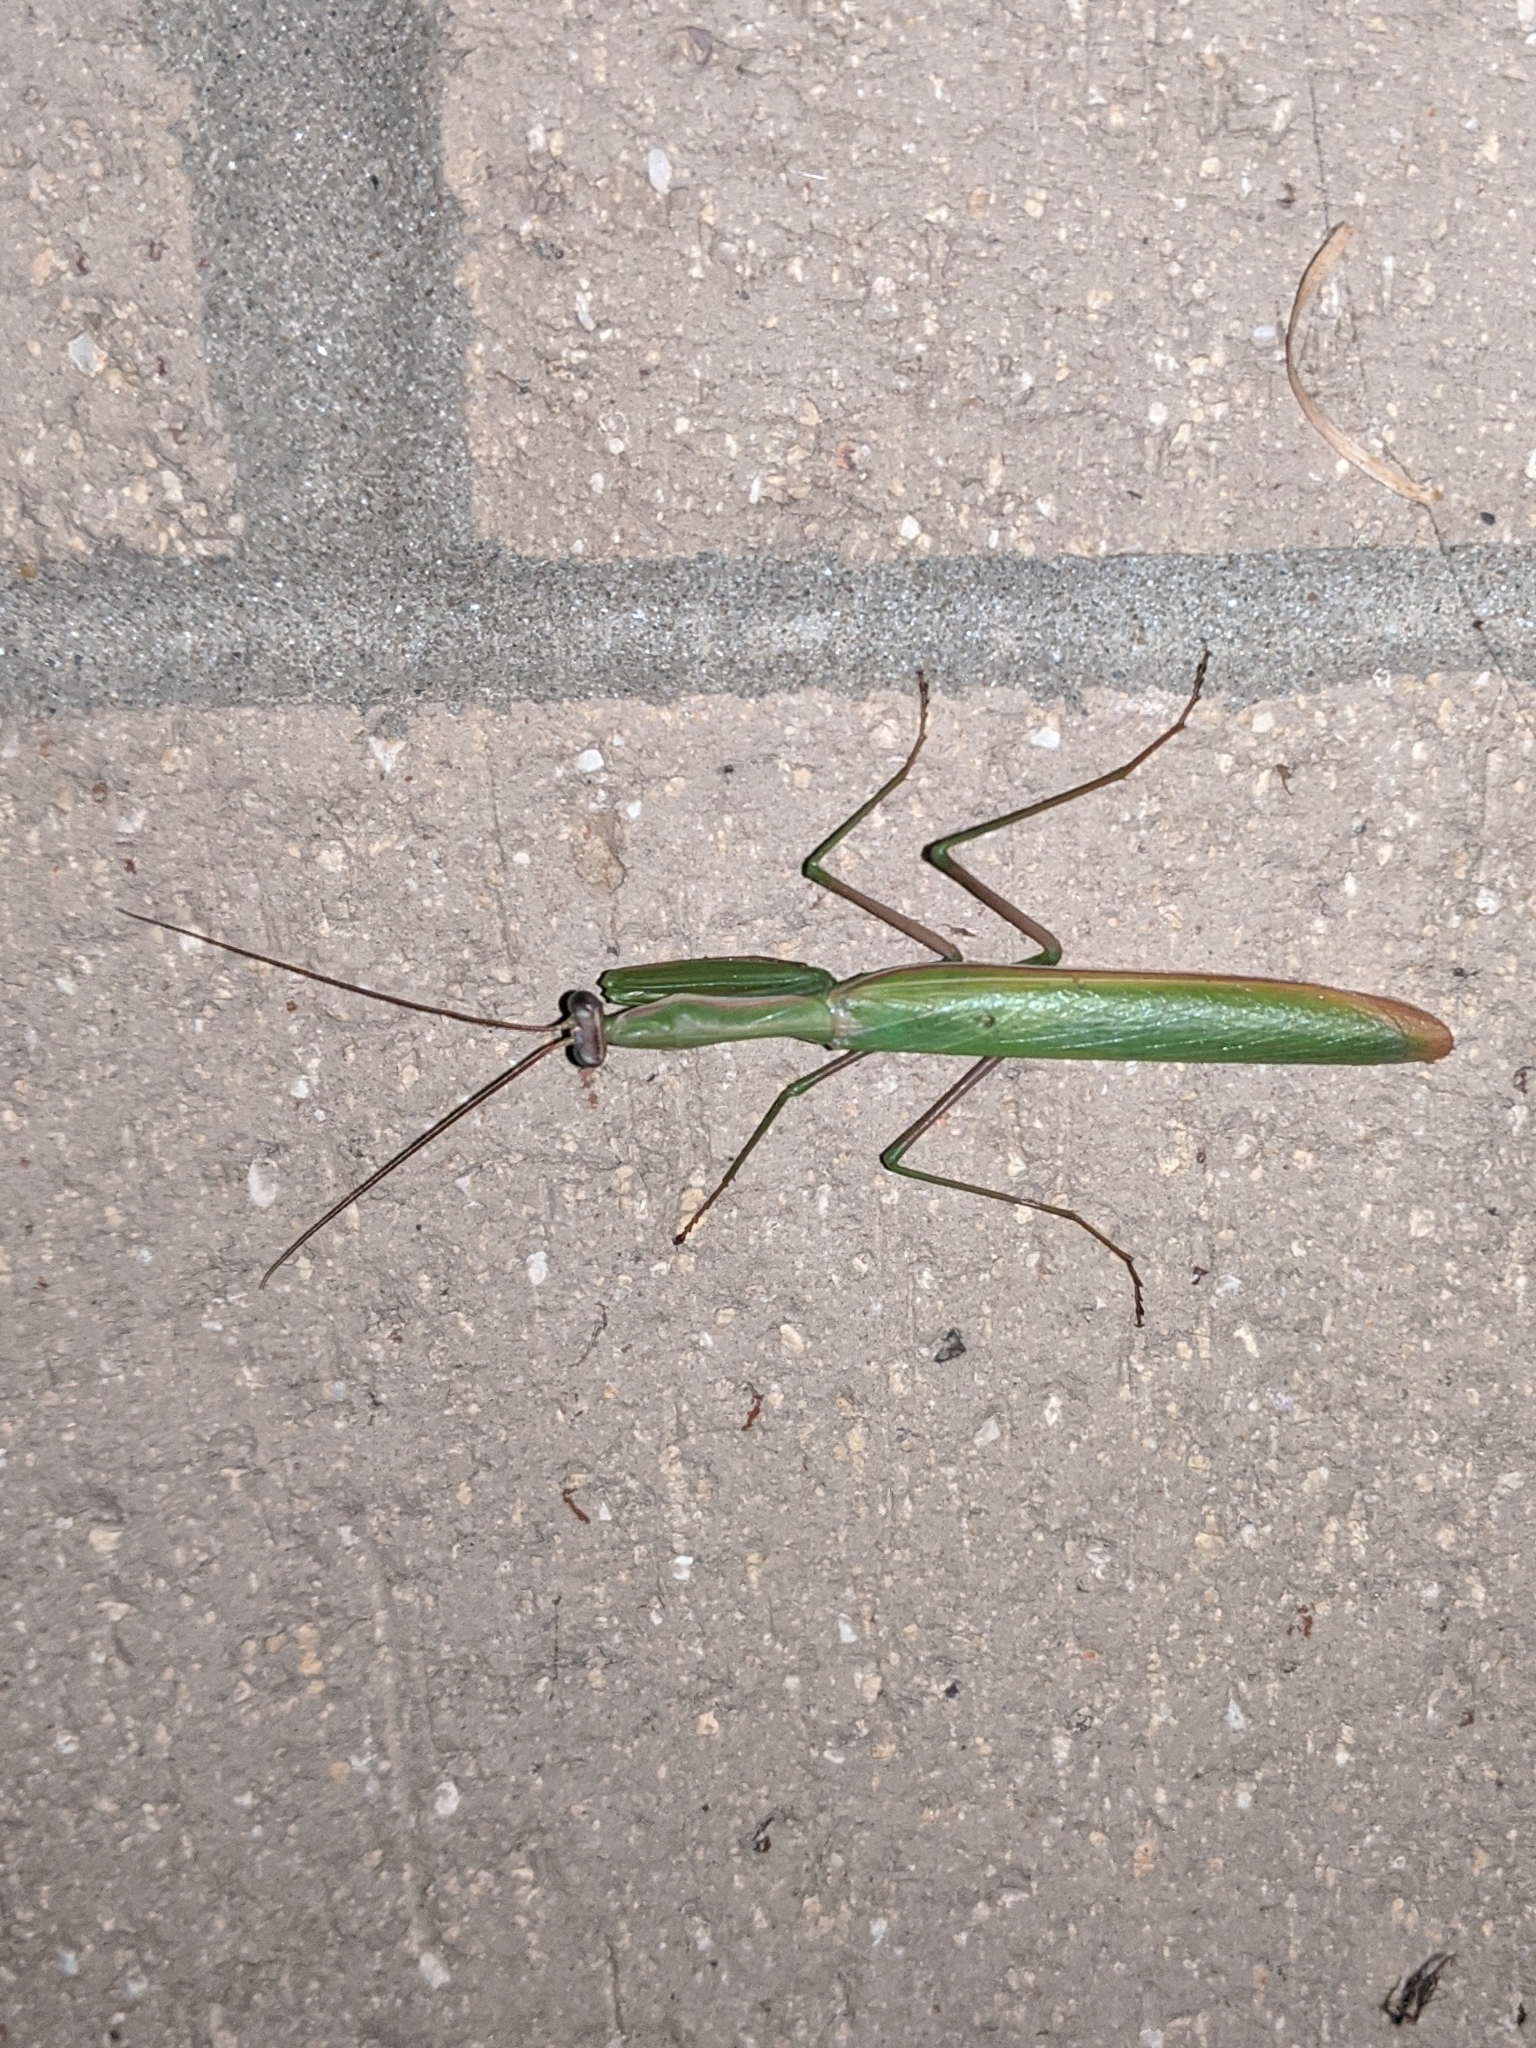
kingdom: Animalia
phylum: Arthropoda
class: Insecta
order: Mantodea
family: Mantidae
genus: Mantis
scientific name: Mantis religiosa
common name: Praying mantis
